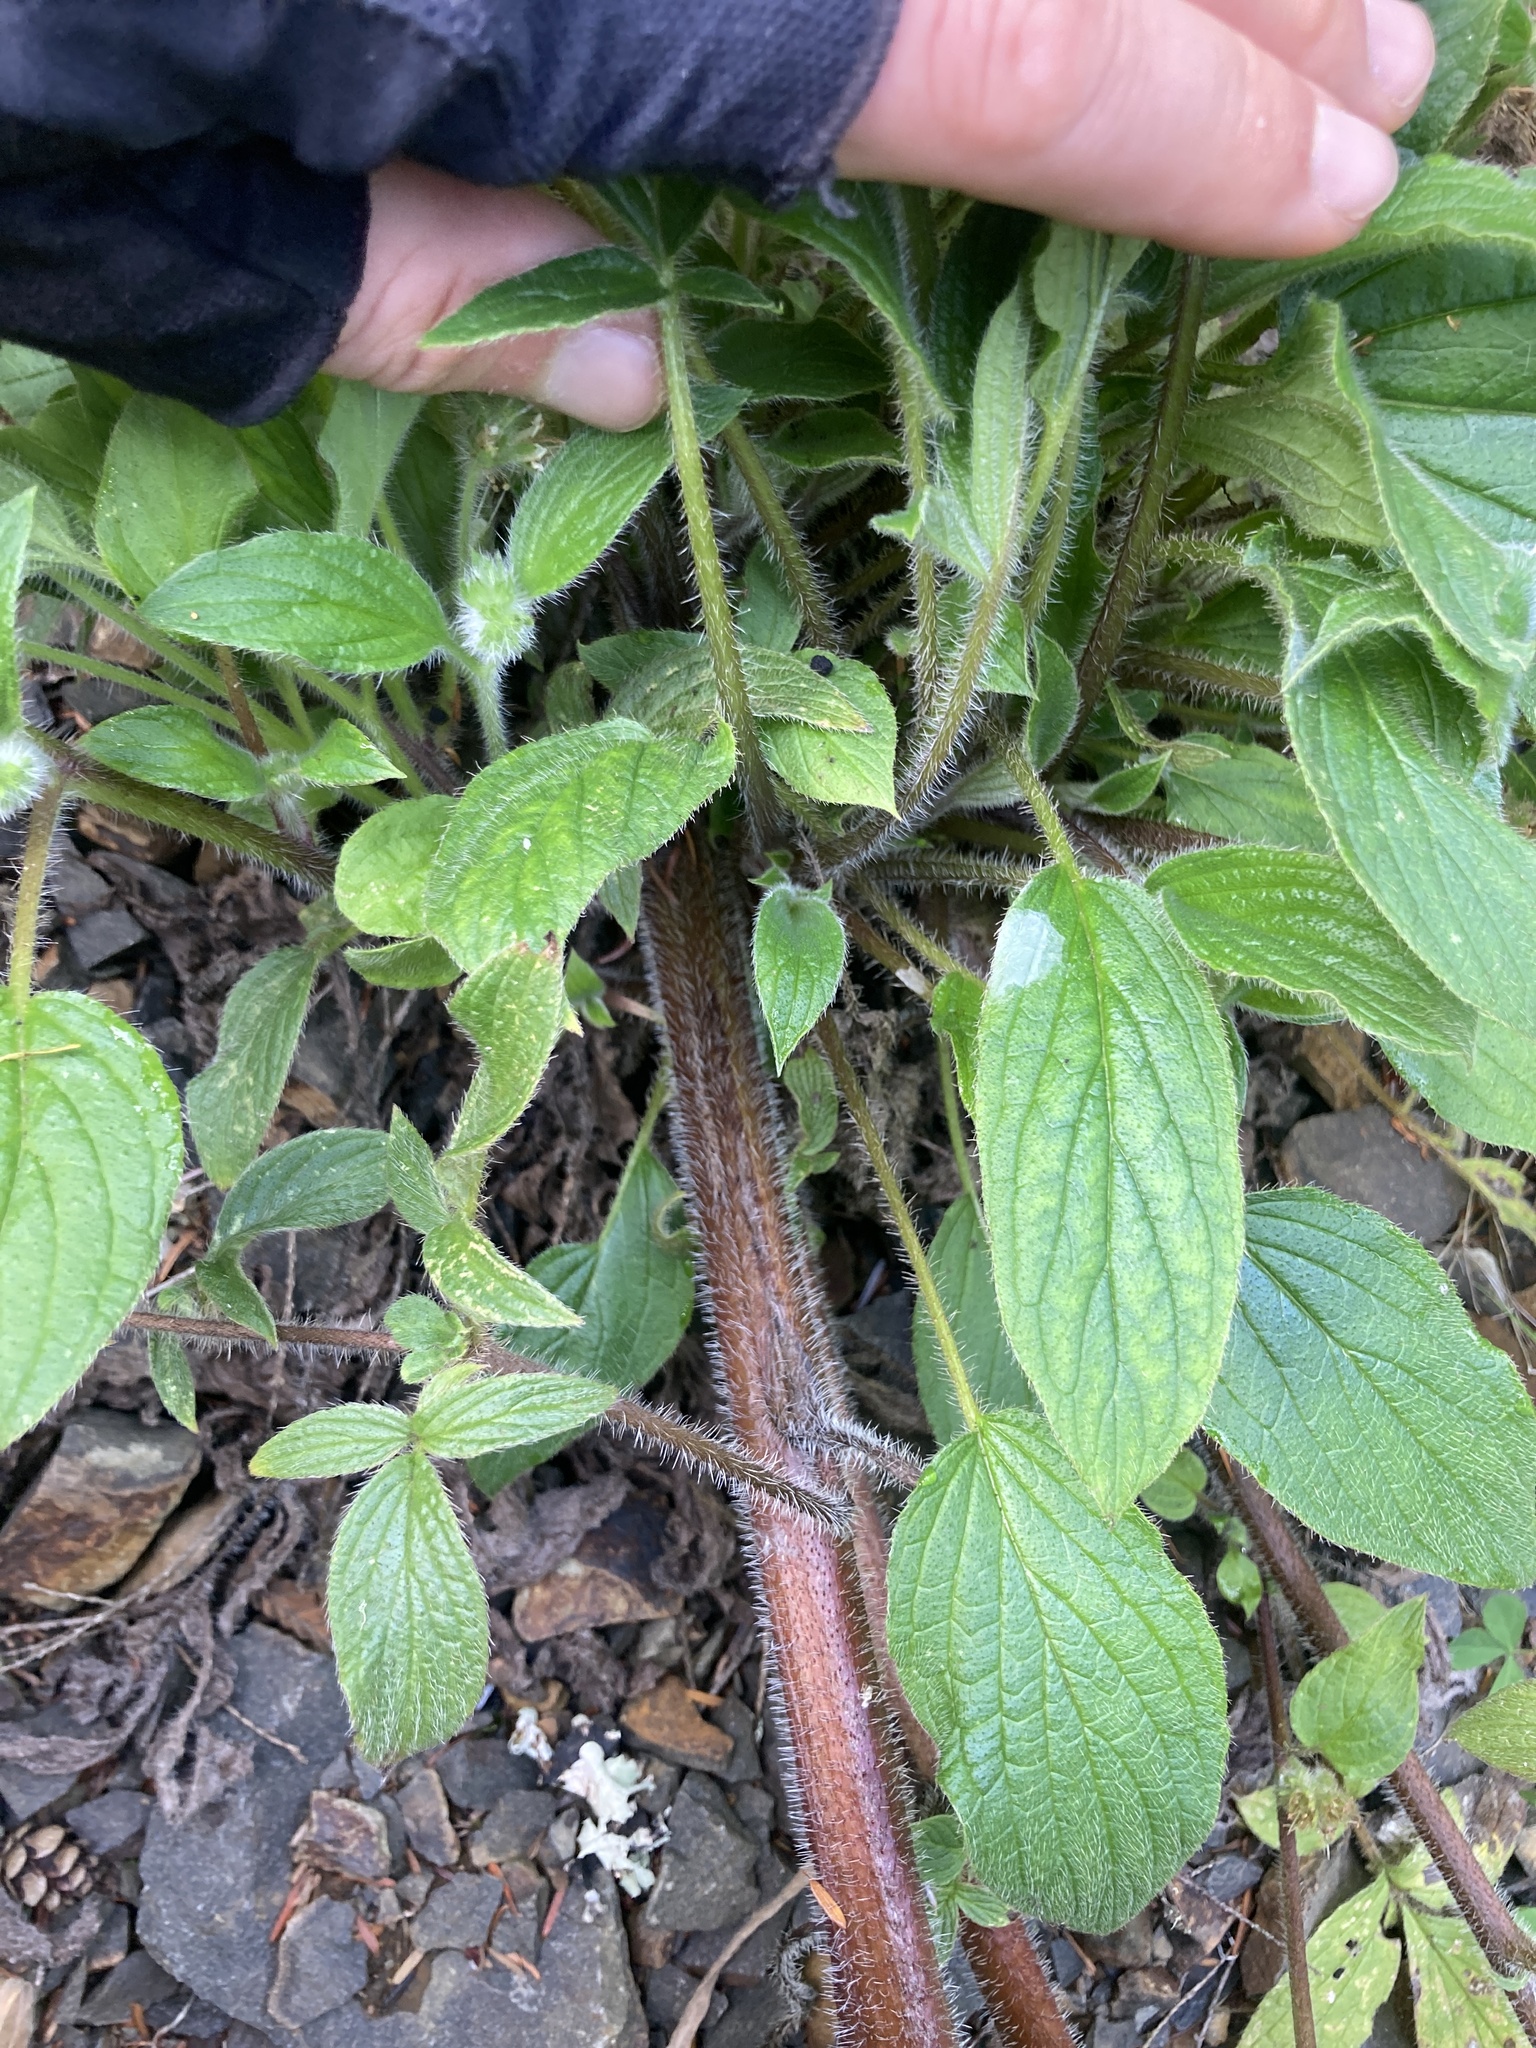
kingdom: Plantae
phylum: Tracheophyta
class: Magnoliopsida
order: Boraginales
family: Hydrophyllaceae
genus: Phacelia
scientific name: Phacelia nemoralis
